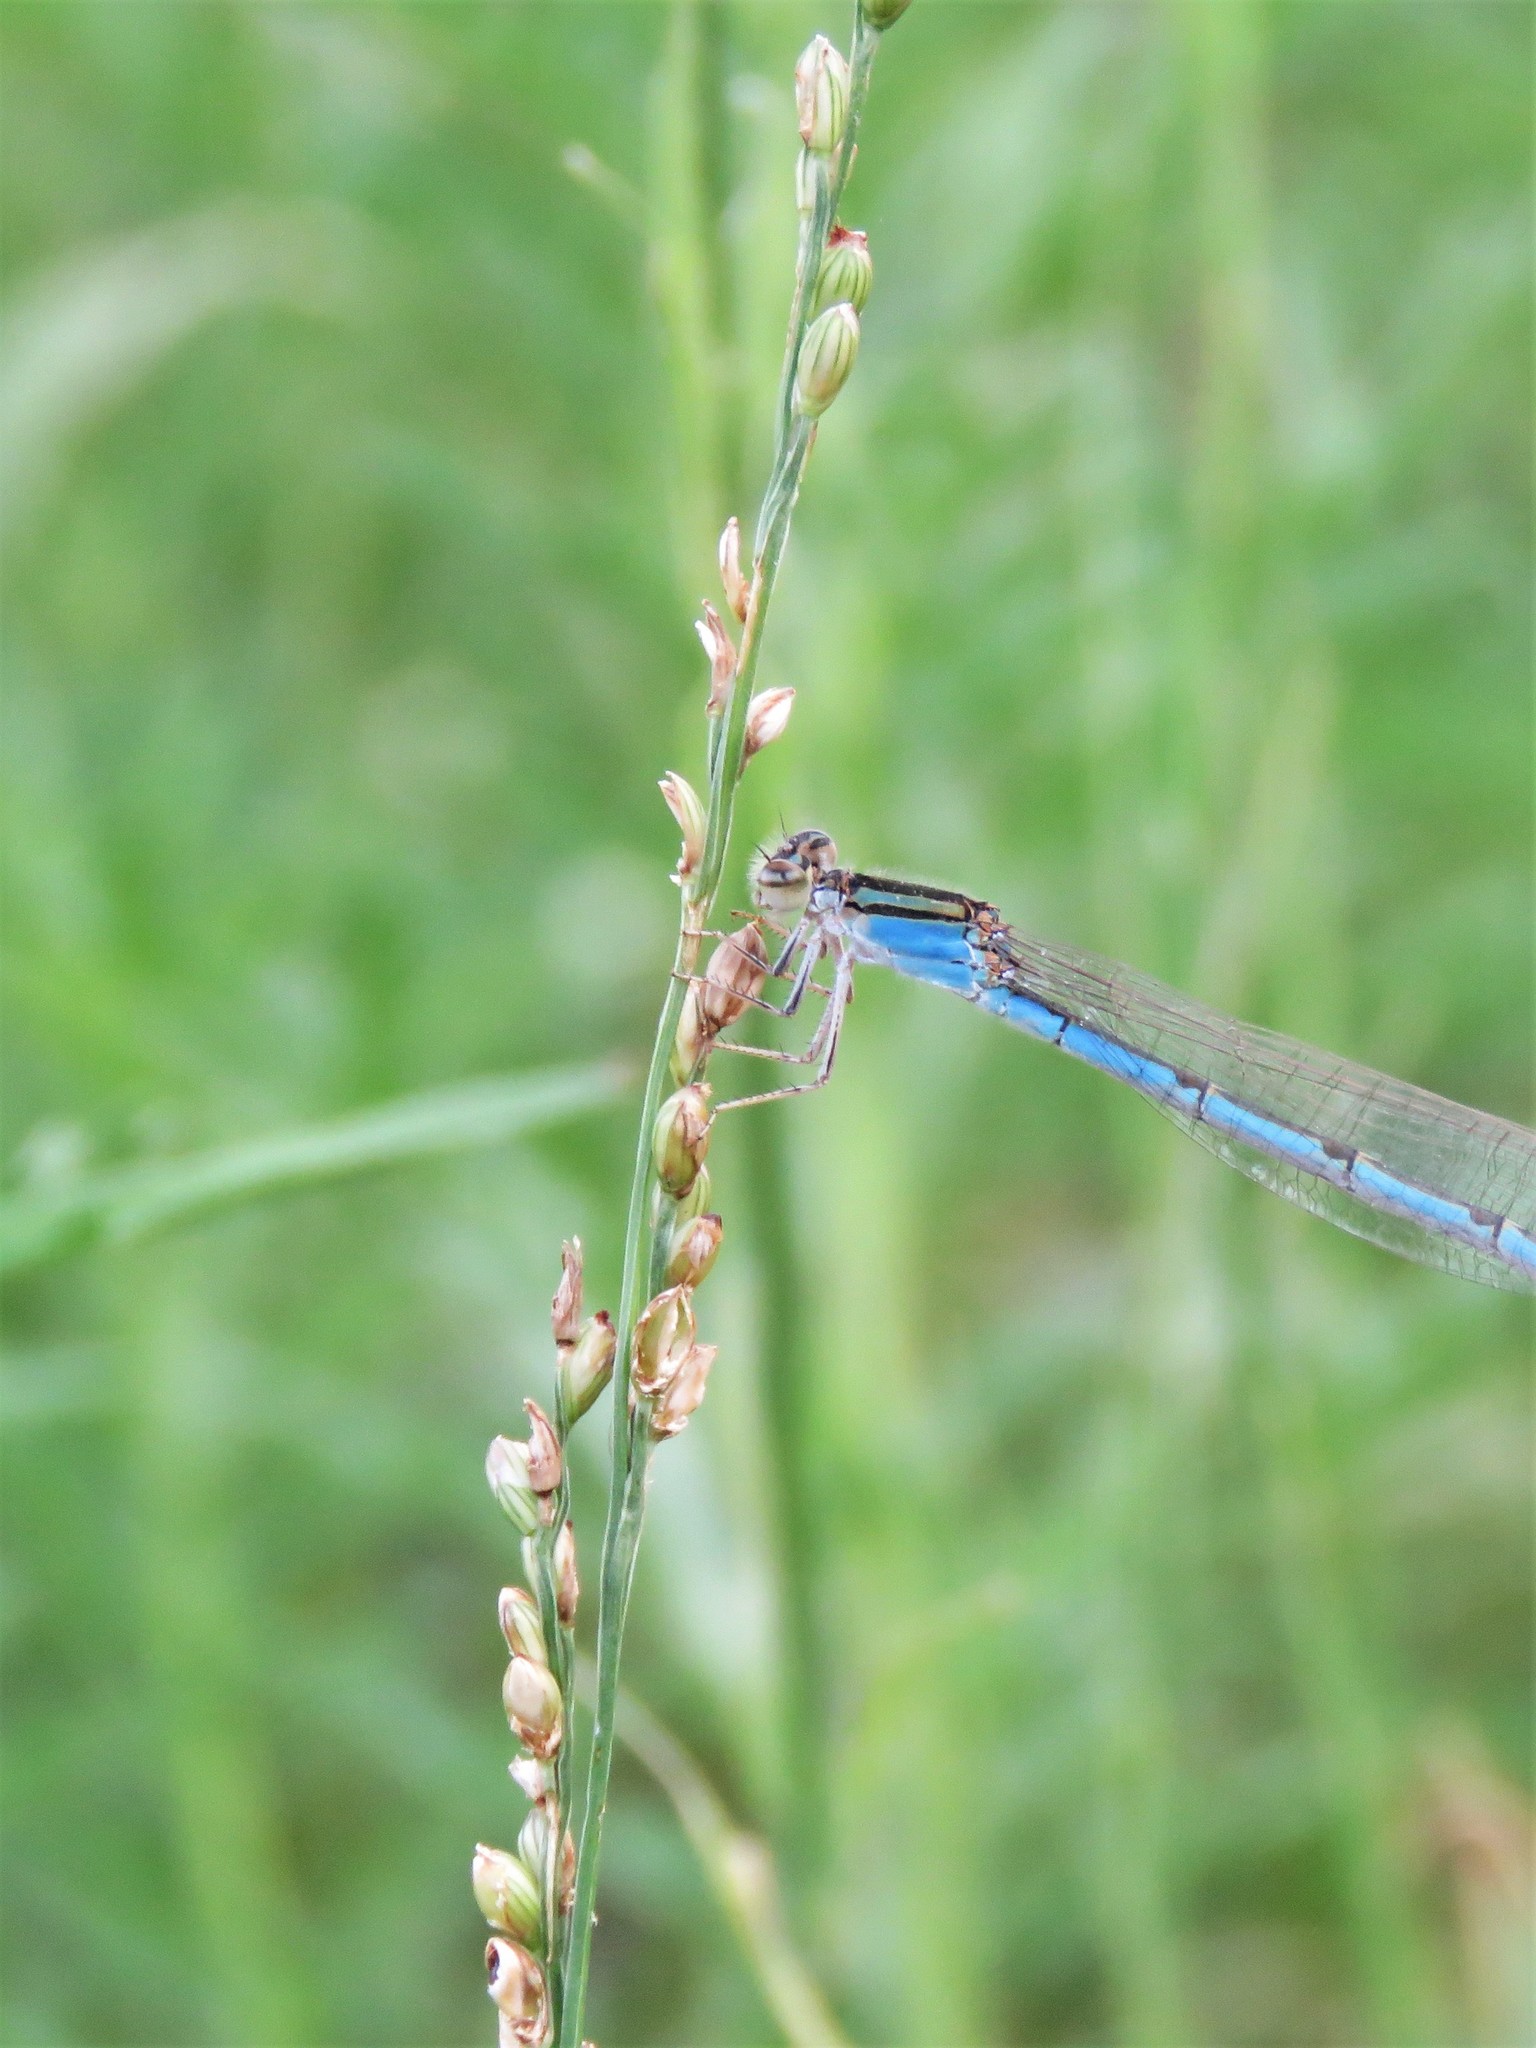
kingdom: Plantae
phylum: Tracheophyta
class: Liliopsida
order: Poales
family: Poaceae
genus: Hopia
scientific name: Hopia obtusa
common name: Vine-mesquite
